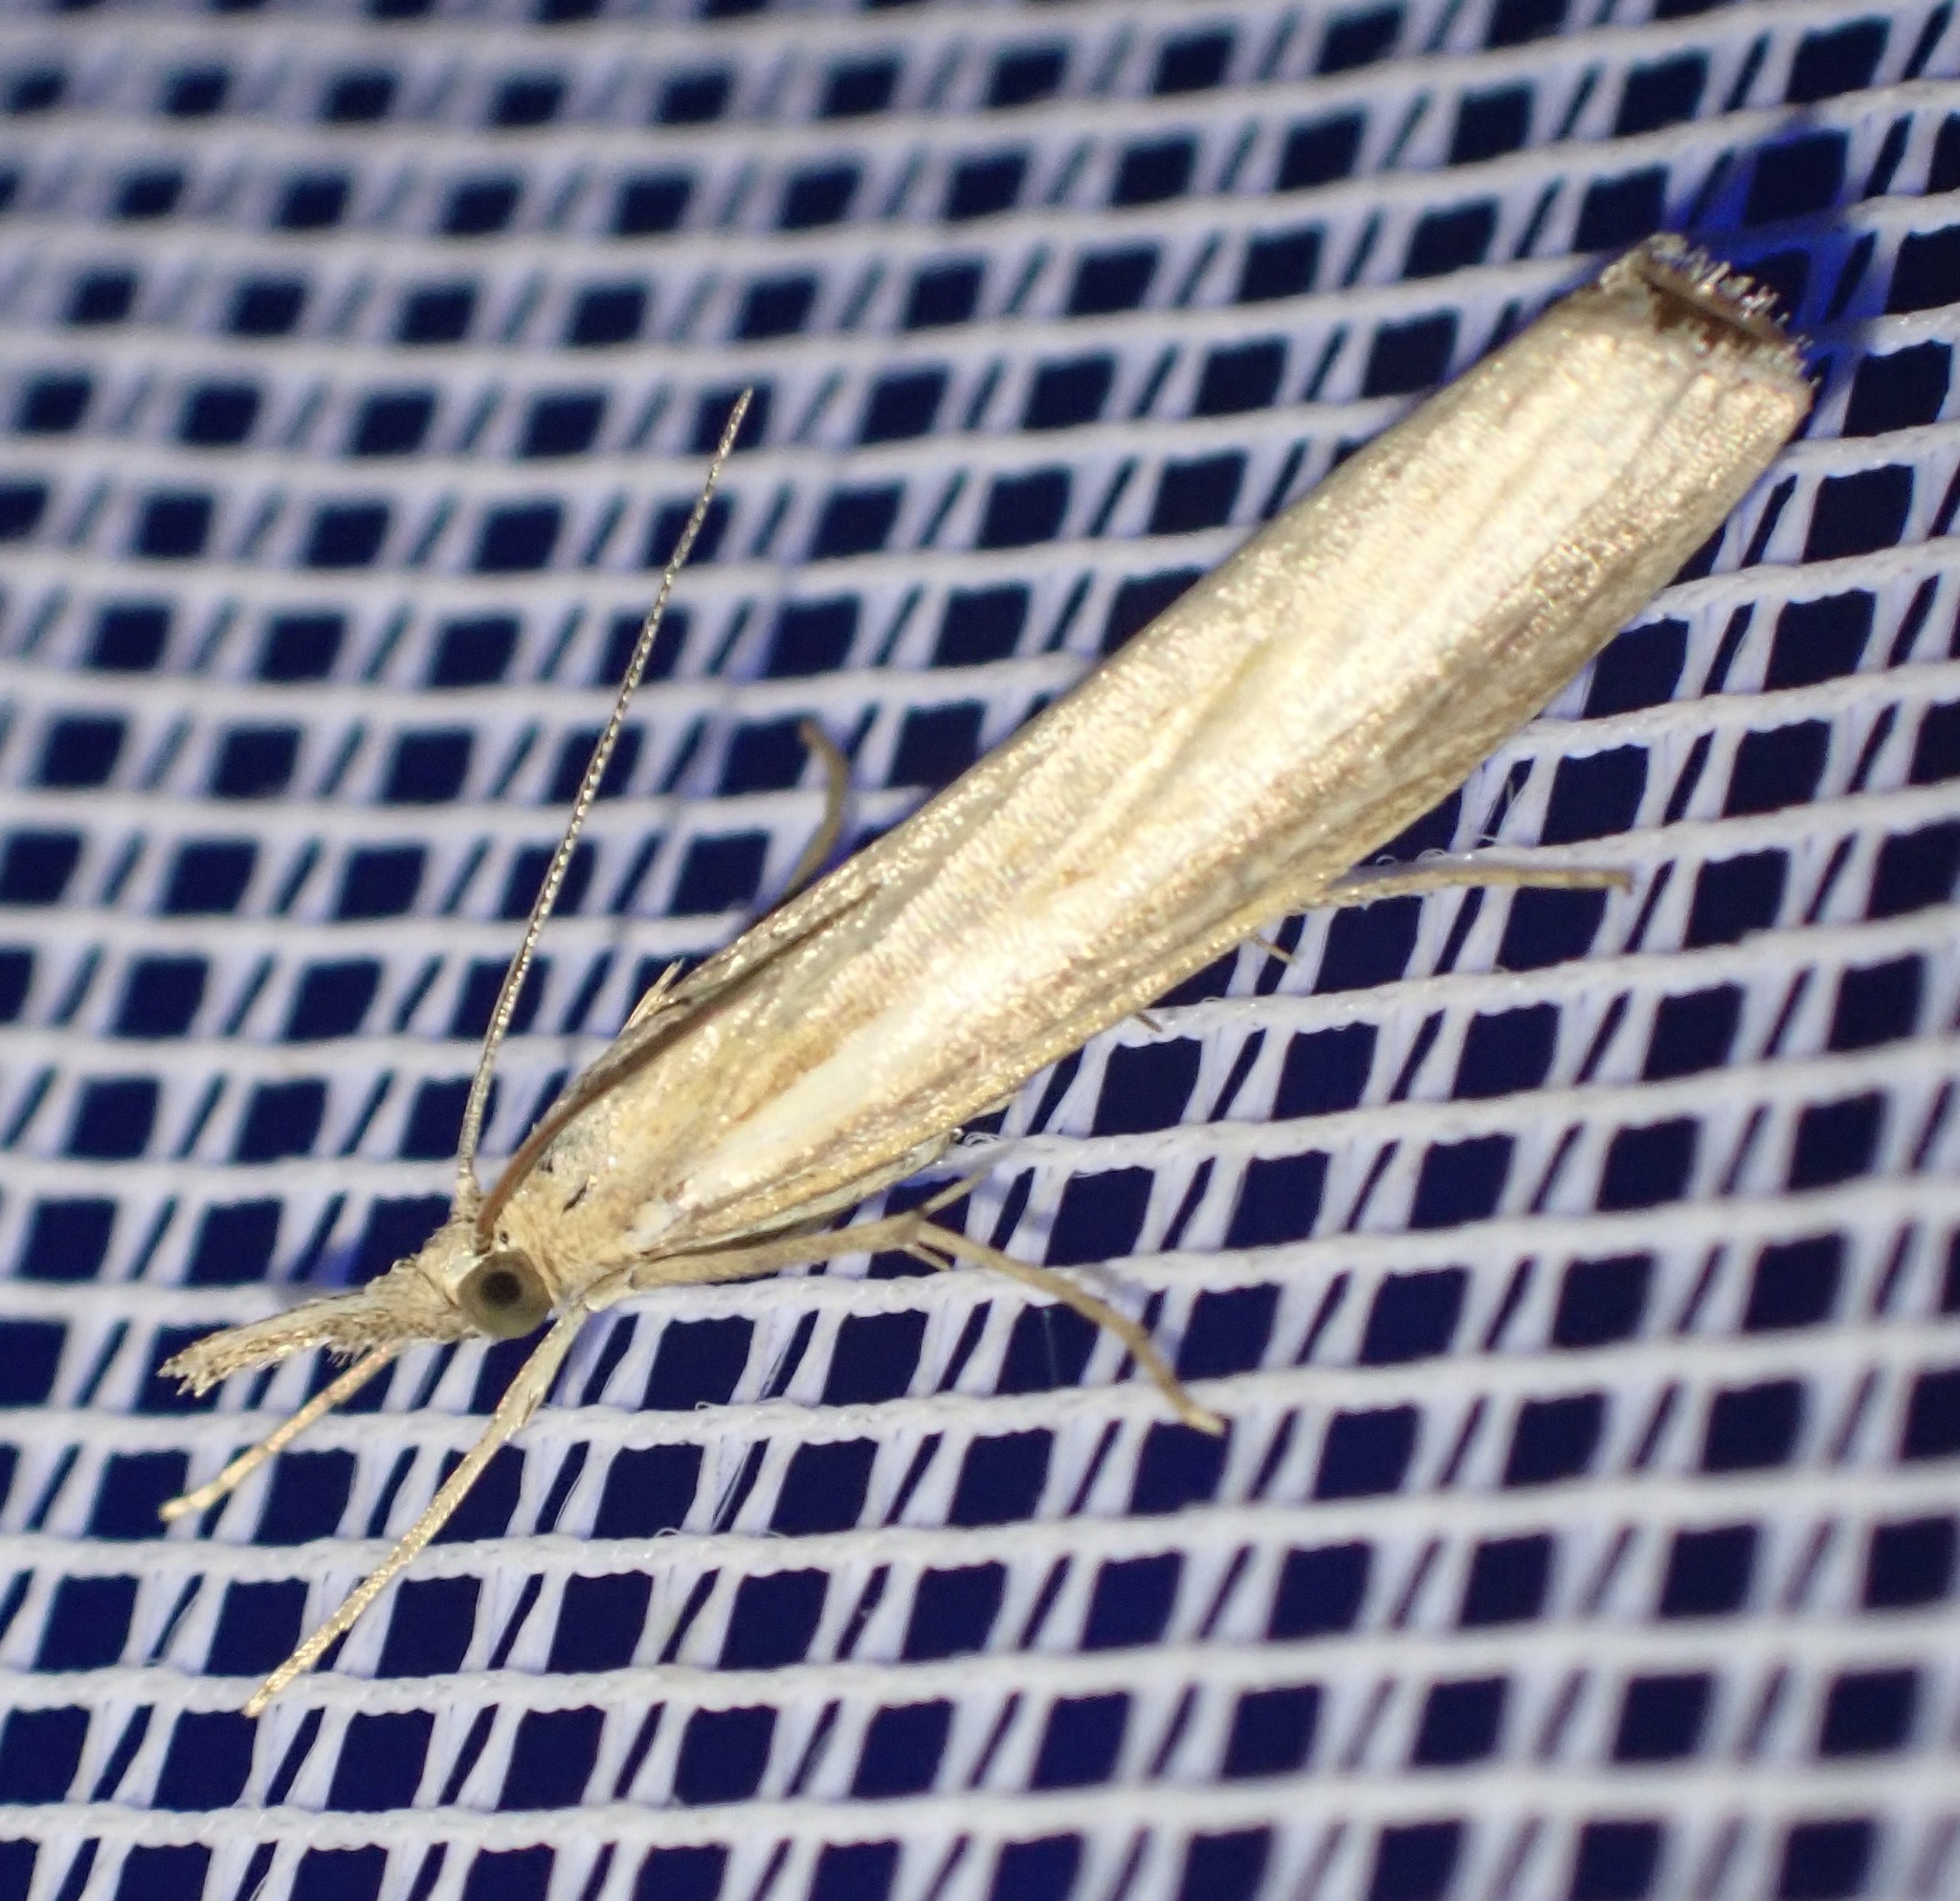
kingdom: Animalia
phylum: Arthropoda
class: Insecta
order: Lepidoptera
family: Crambidae
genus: Agriphila
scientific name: Agriphila tristellus
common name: Common grass-veneer
